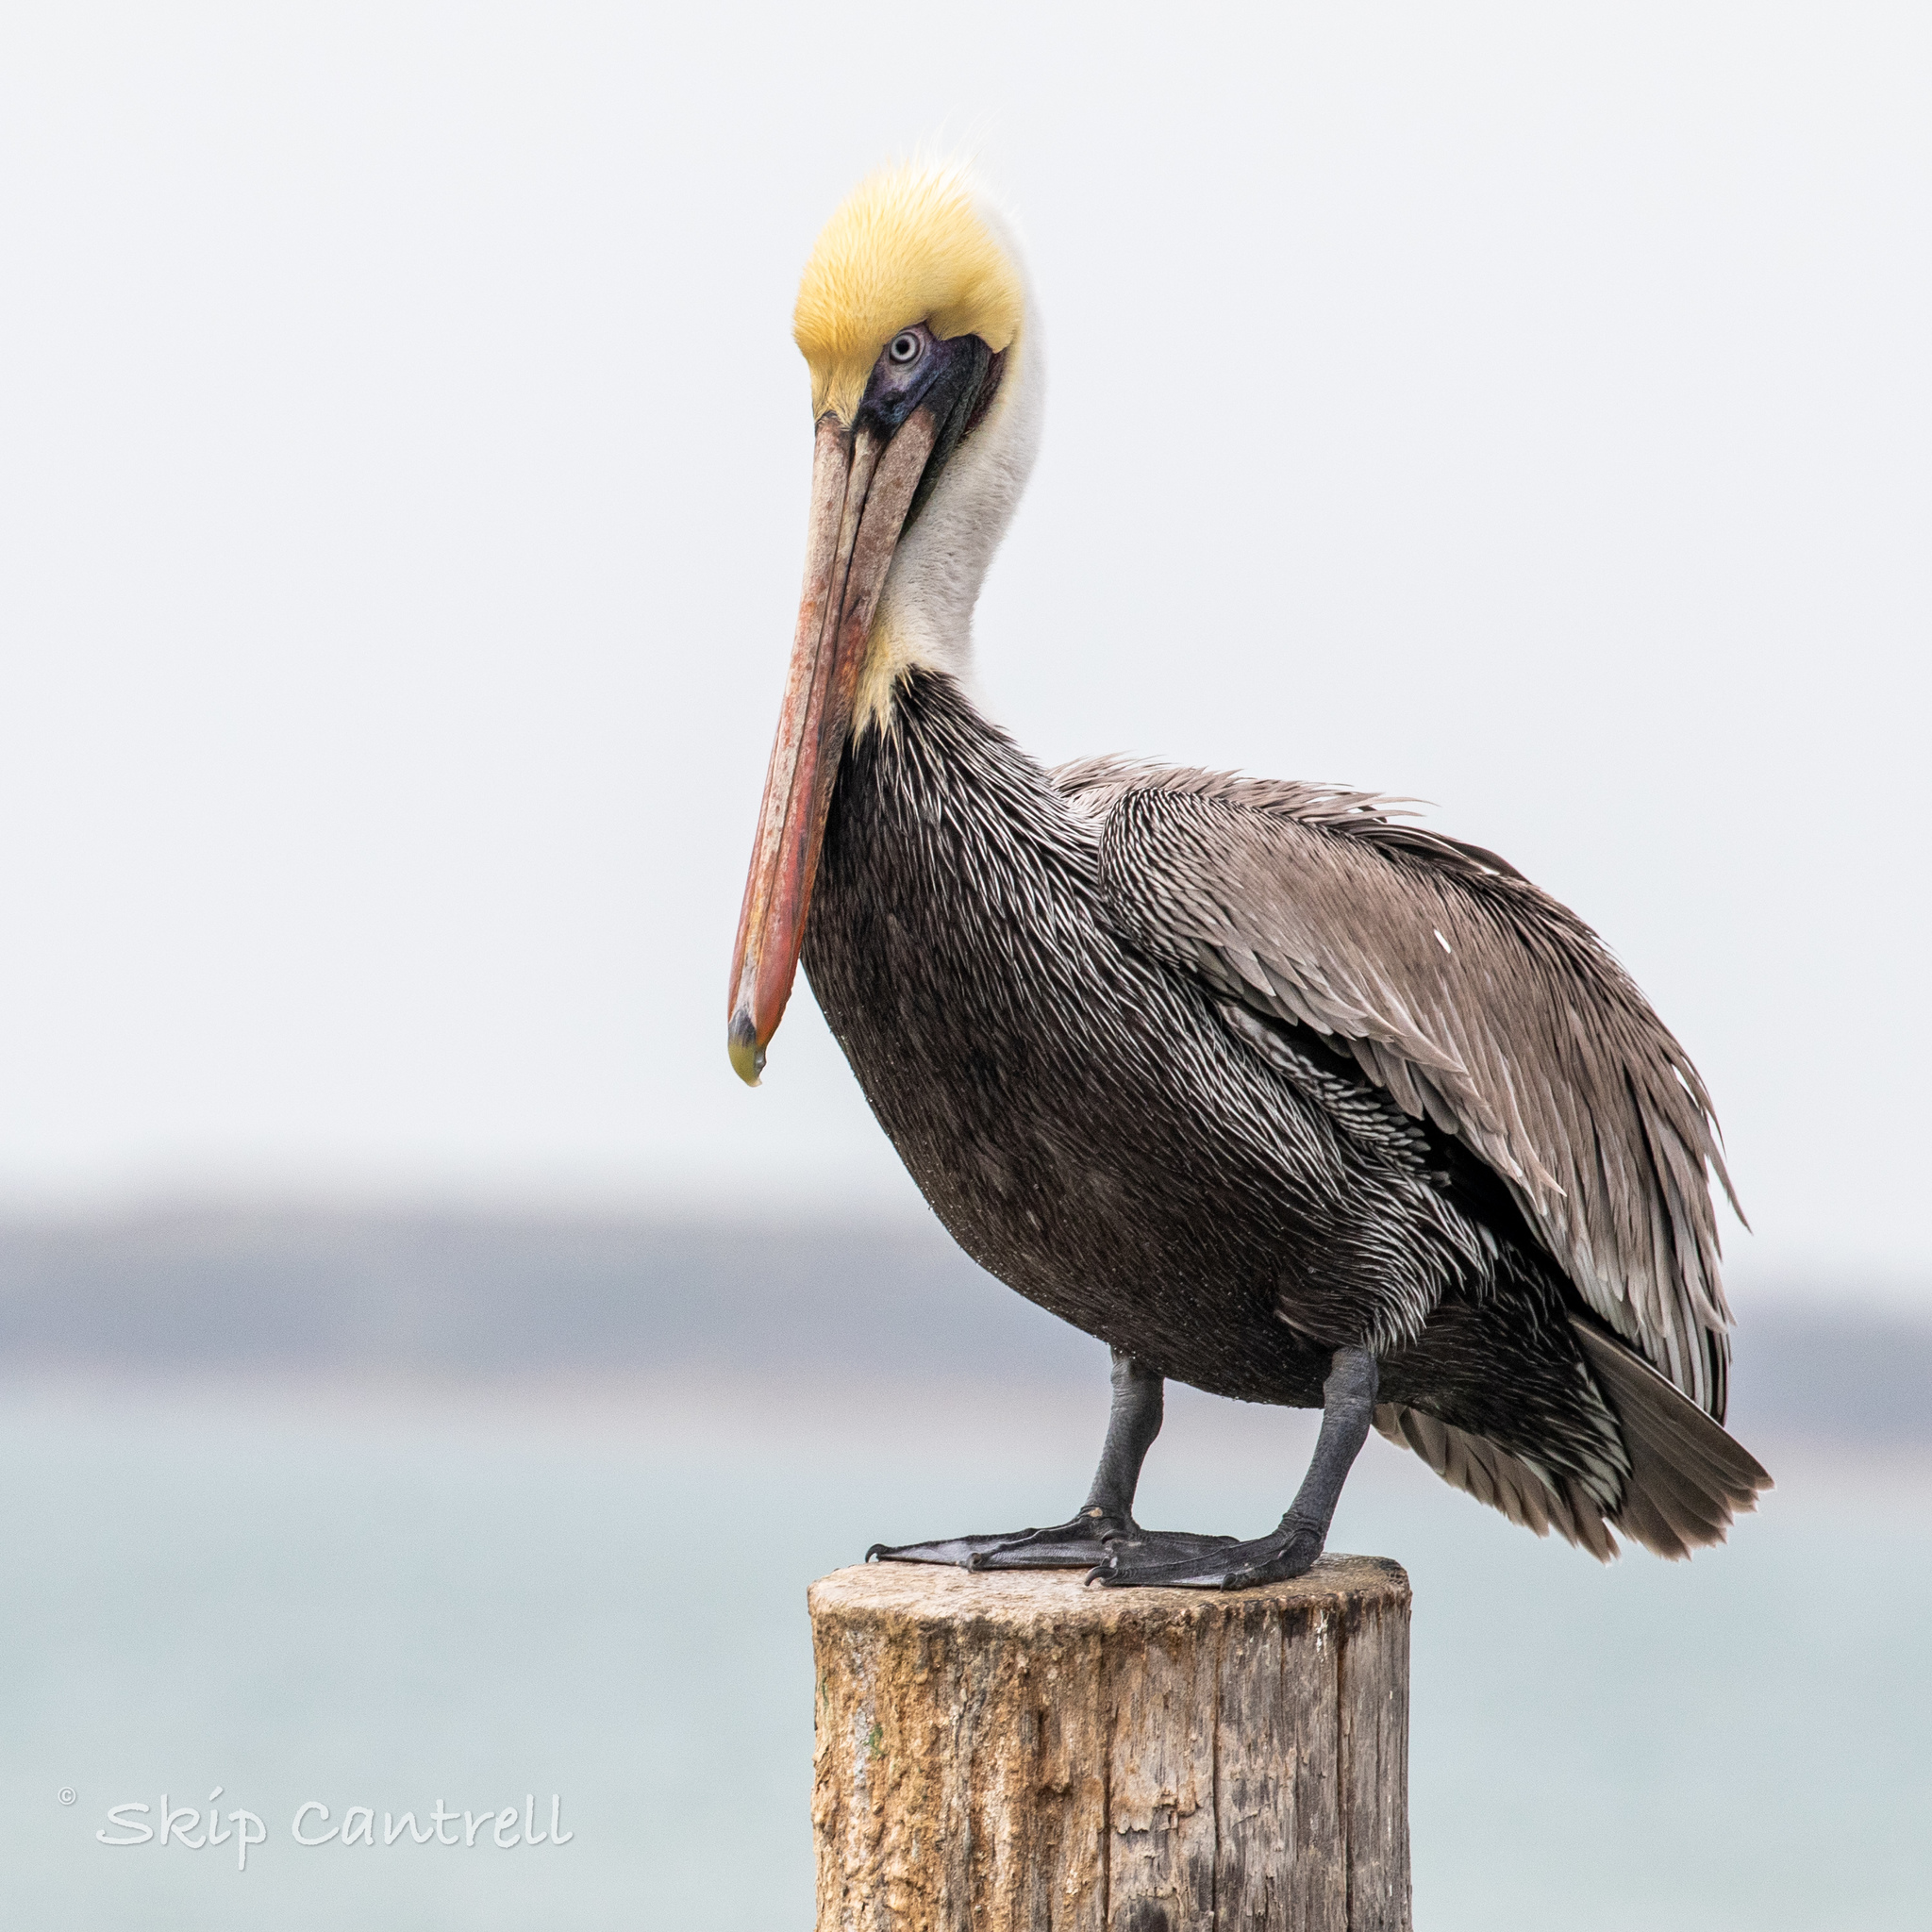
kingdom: Animalia
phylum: Chordata
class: Aves
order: Pelecaniformes
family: Pelecanidae
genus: Pelecanus
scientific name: Pelecanus occidentalis
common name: Brown pelican
